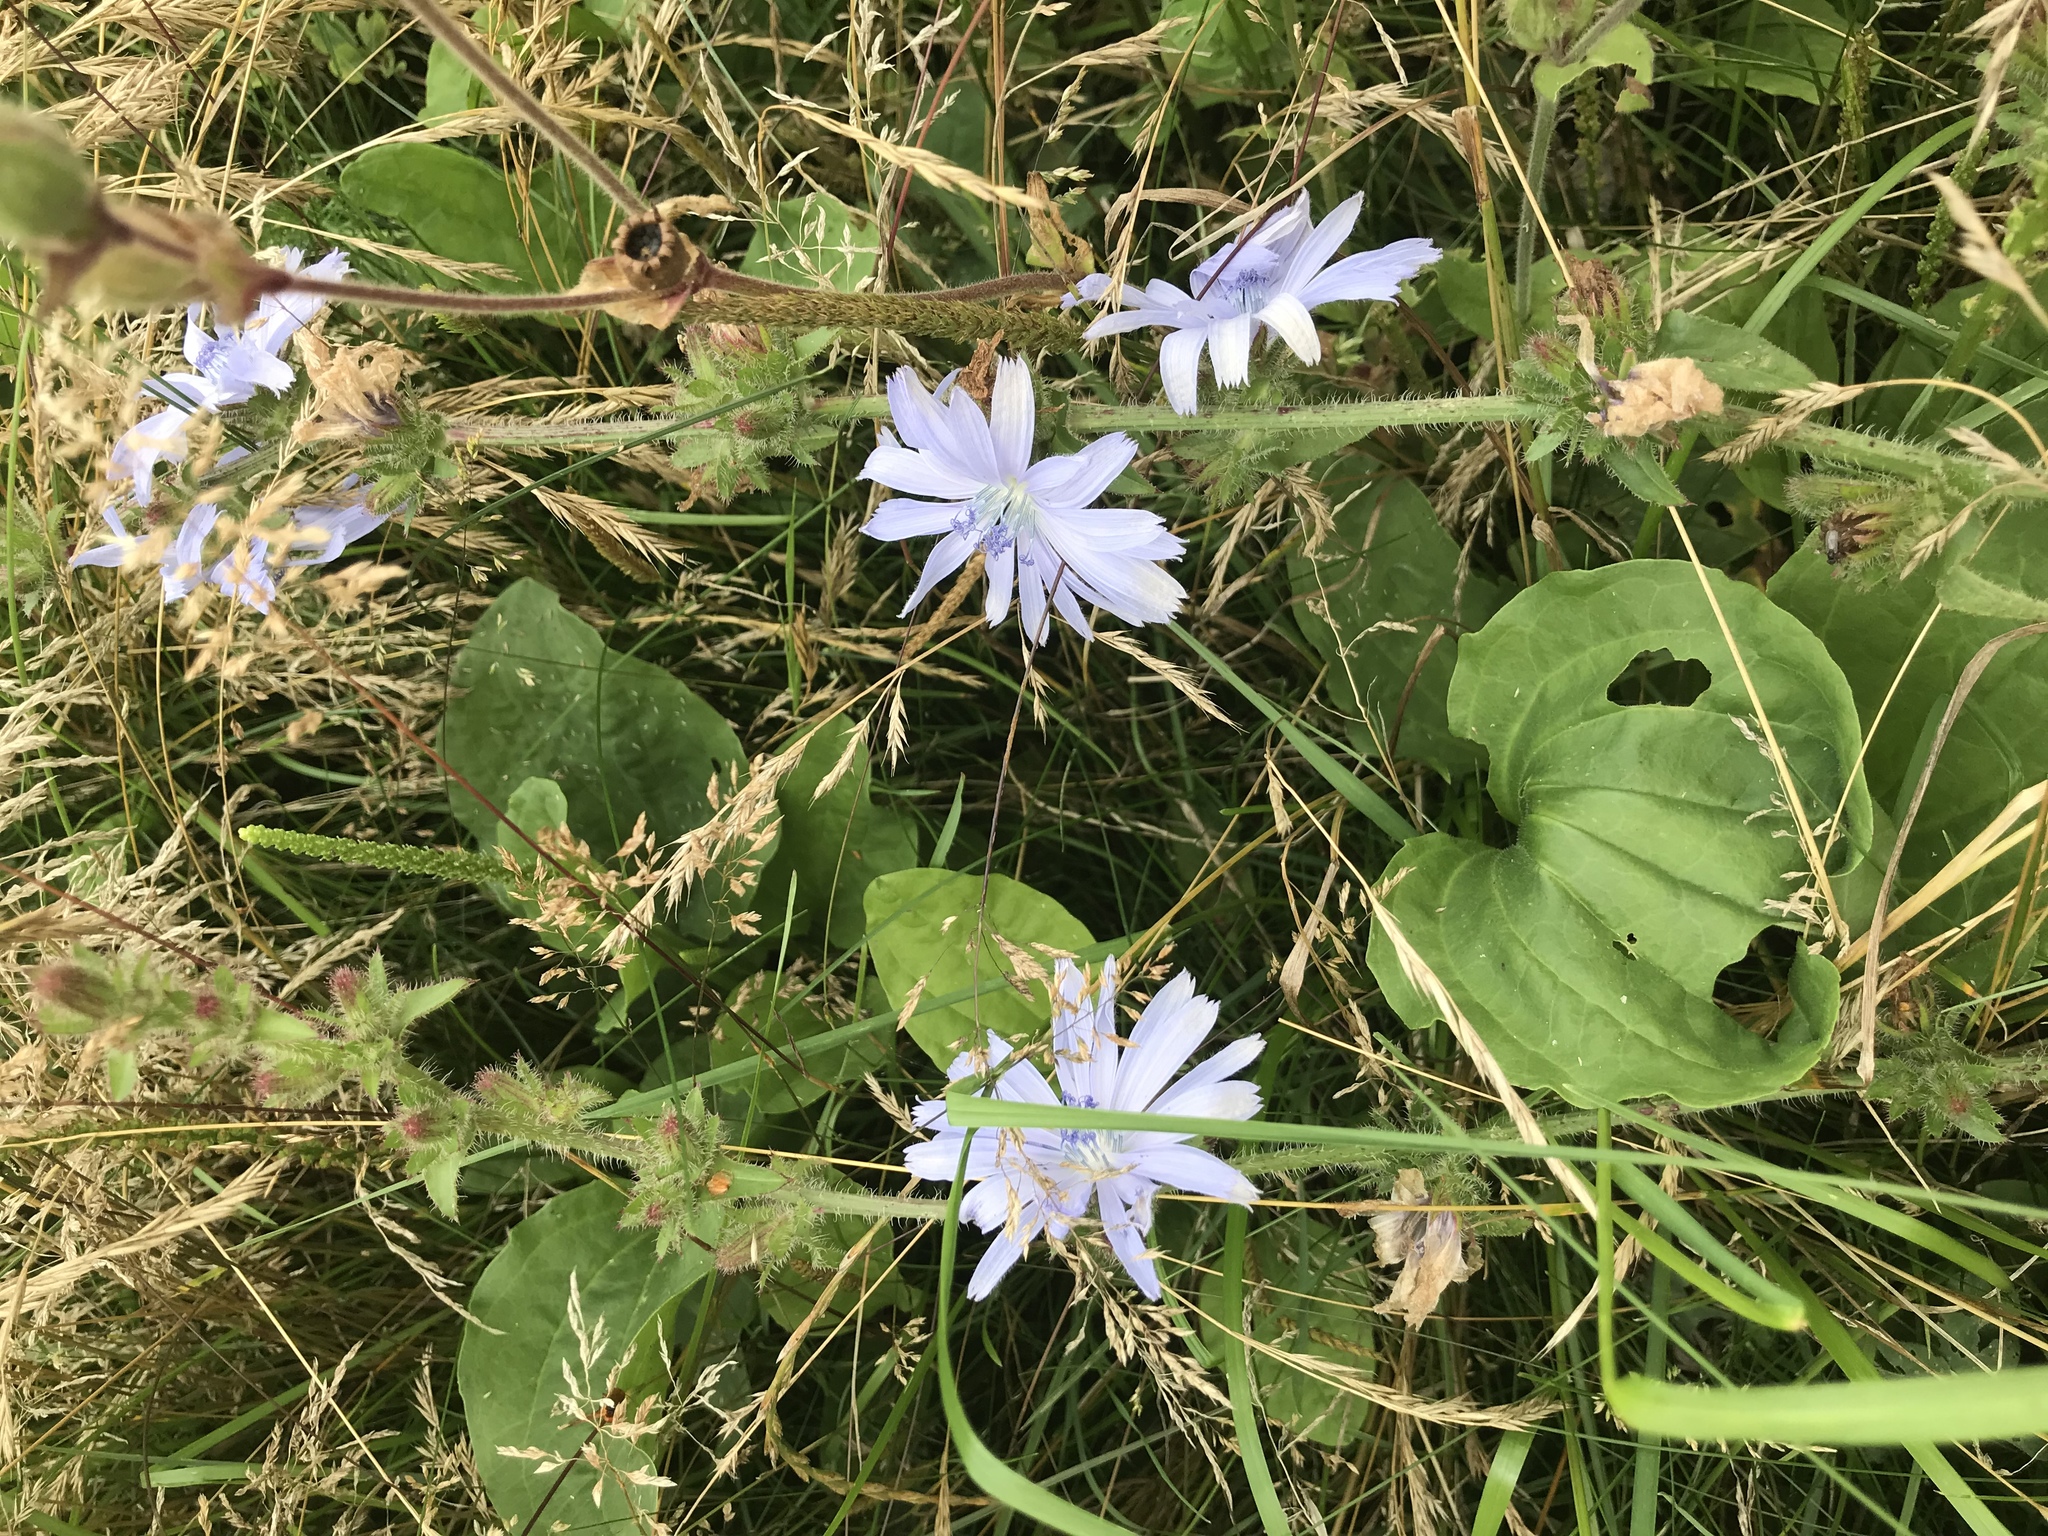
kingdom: Plantae
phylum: Tracheophyta
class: Magnoliopsida
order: Asterales
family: Asteraceae
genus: Cichorium
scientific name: Cichorium intybus
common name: Chicory
